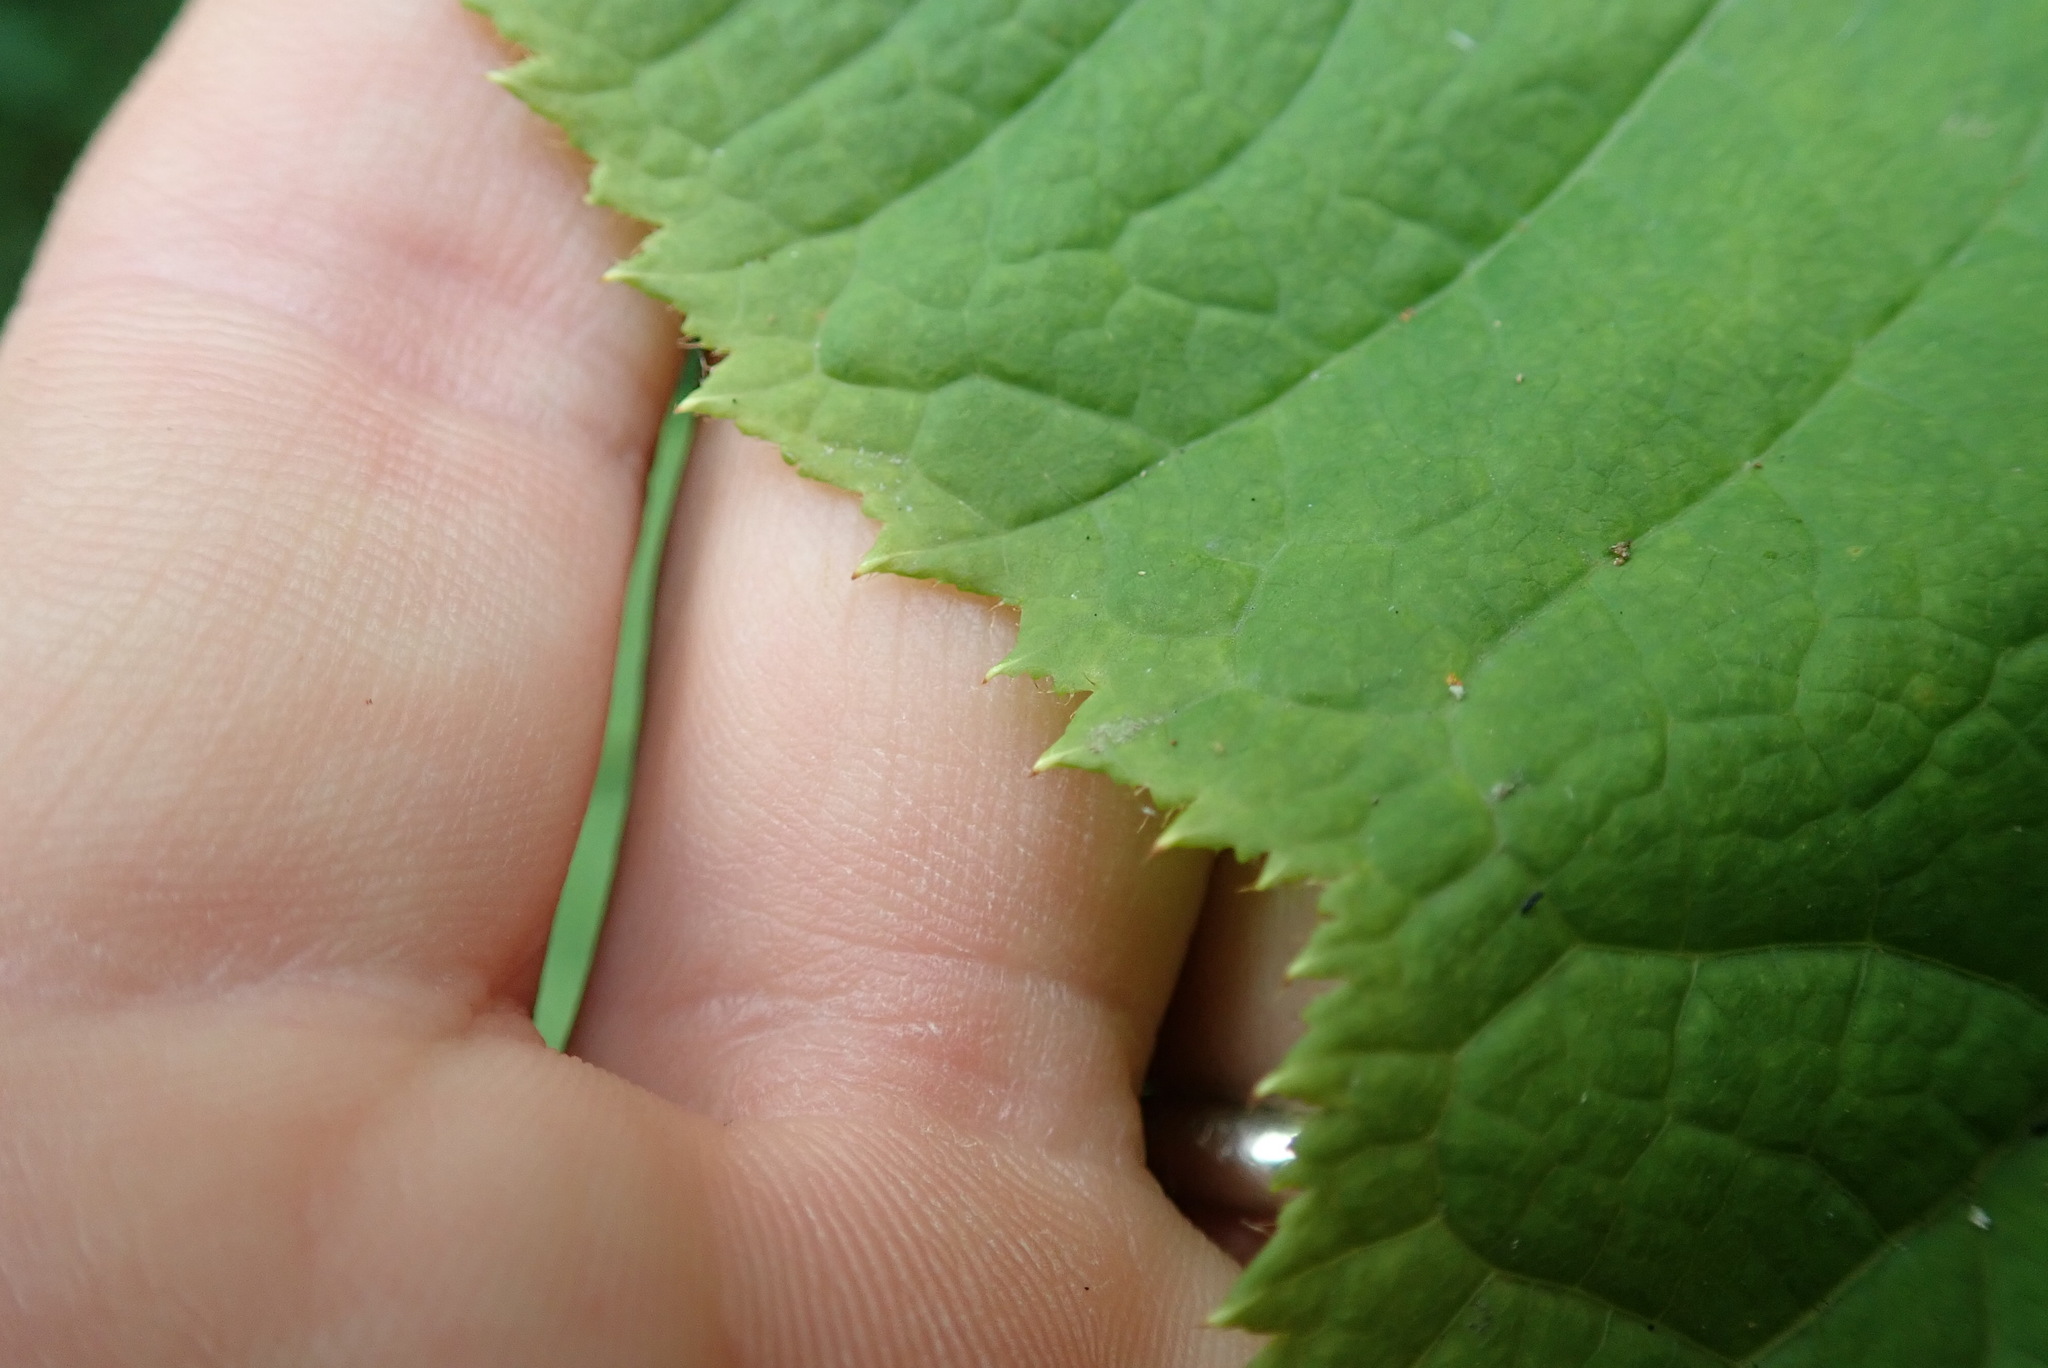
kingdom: Plantae
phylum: Tracheophyta
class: Magnoliopsida
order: Apiales
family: Araliaceae
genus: Oplopanax
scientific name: Oplopanax horridus
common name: Devil's walking-stick
